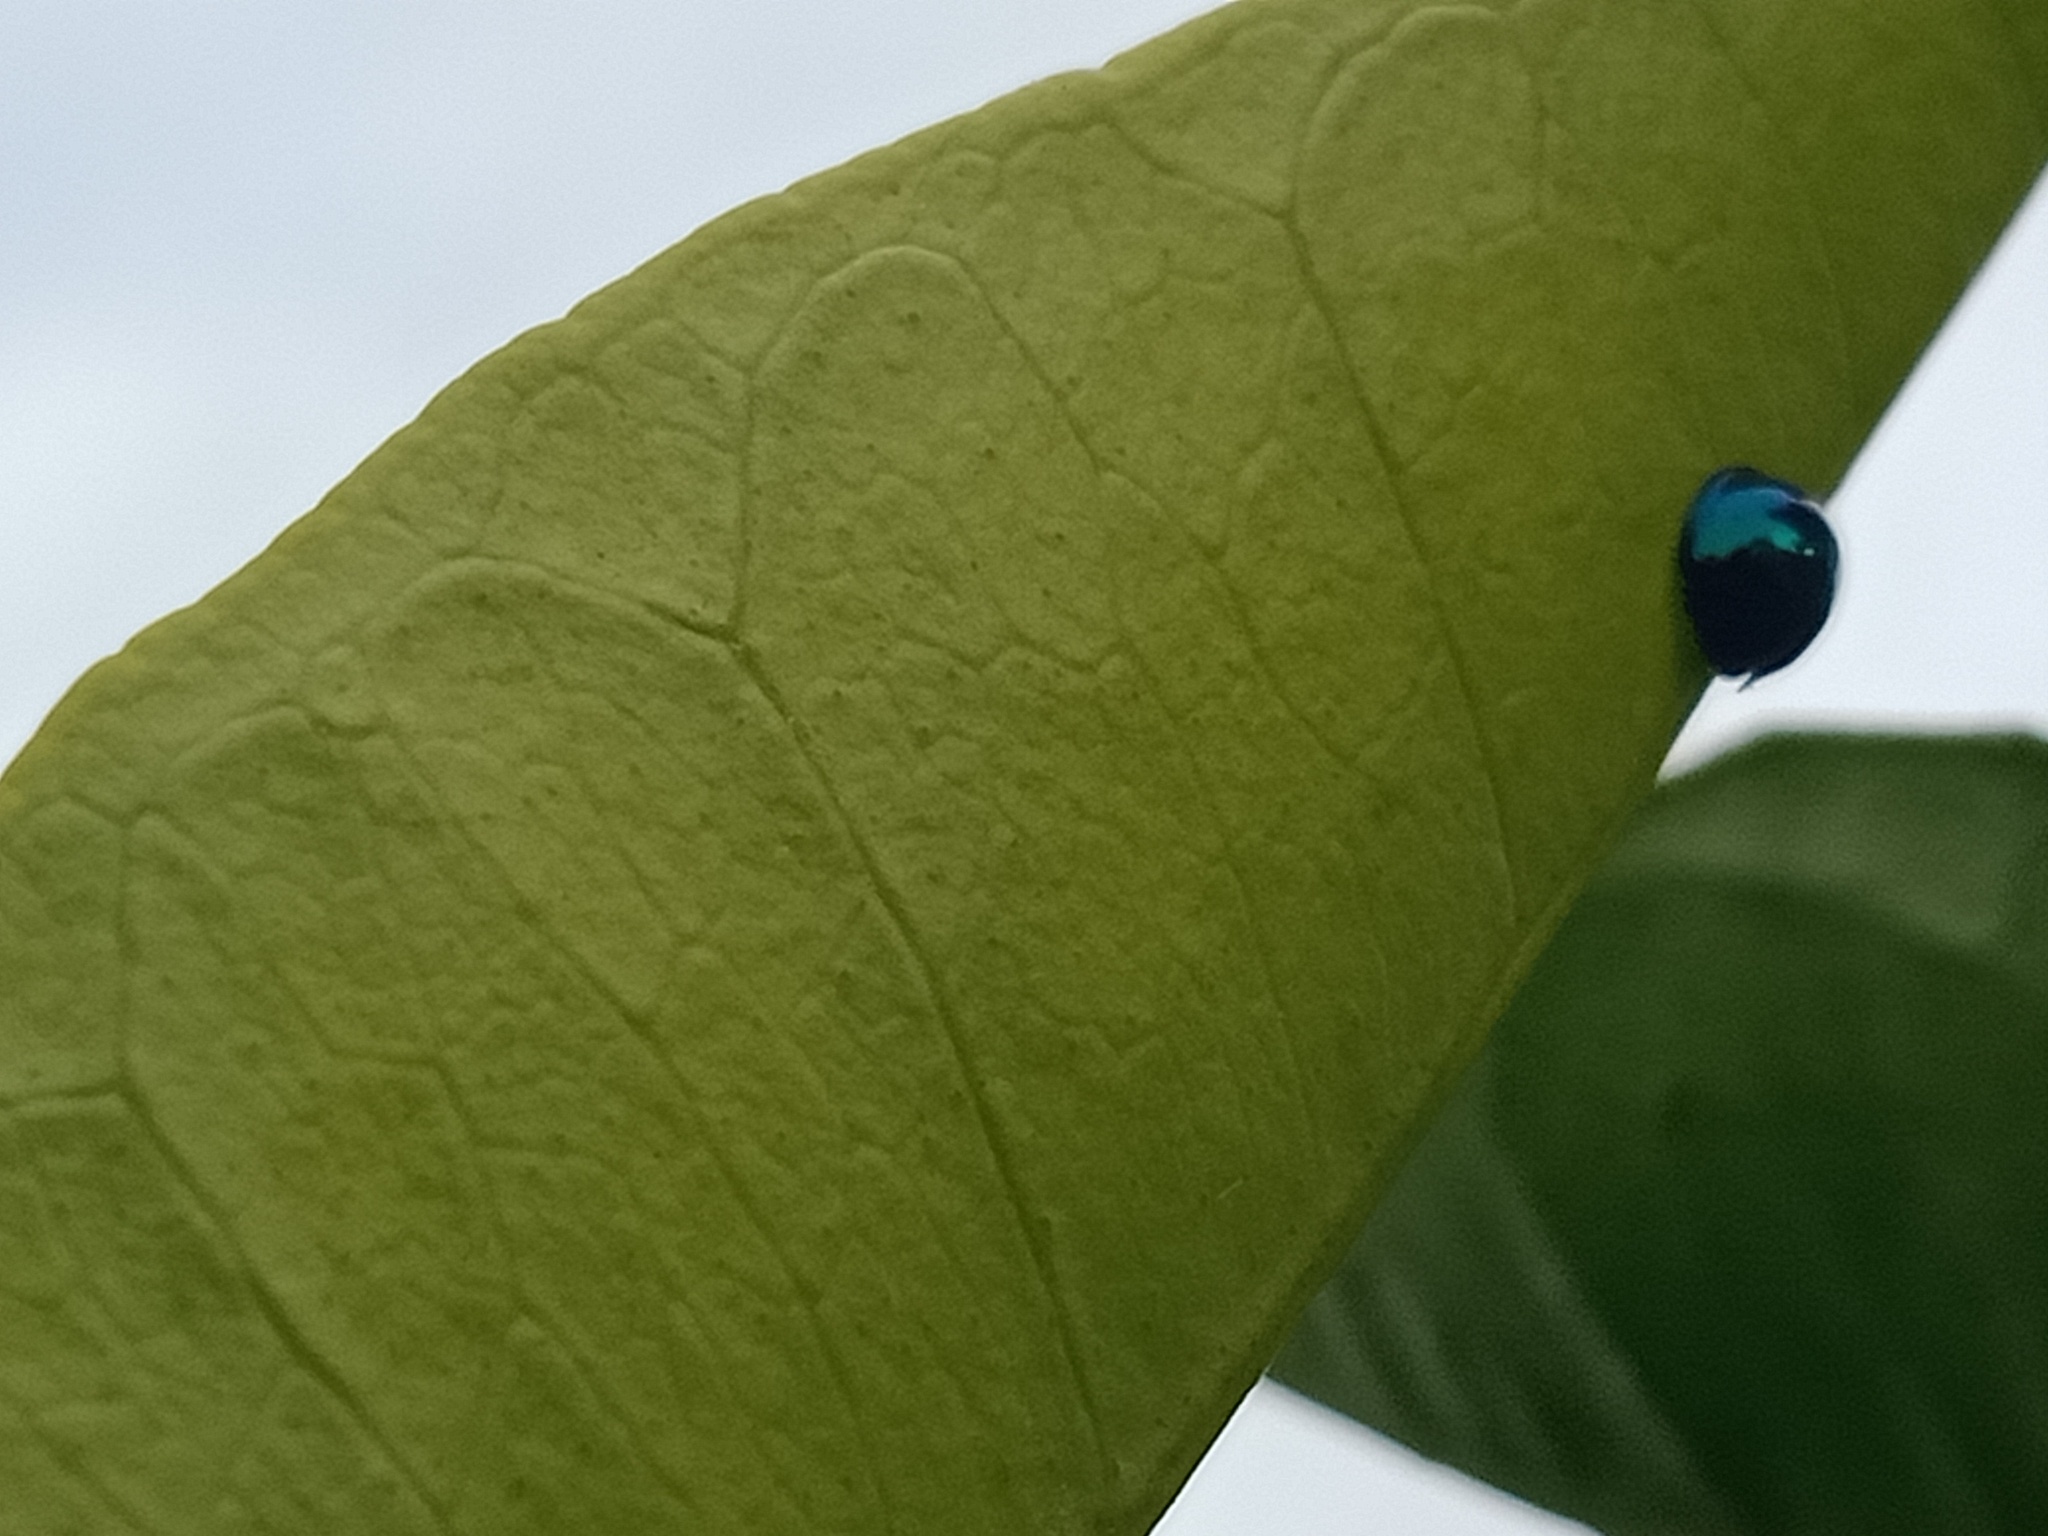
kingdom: Animalia
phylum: Arthropoda
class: Insecta
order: Coleoptera
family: Coccinellidae
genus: Halmus
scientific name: Halmus chalybeus
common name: Steel blue ladybird beetle
